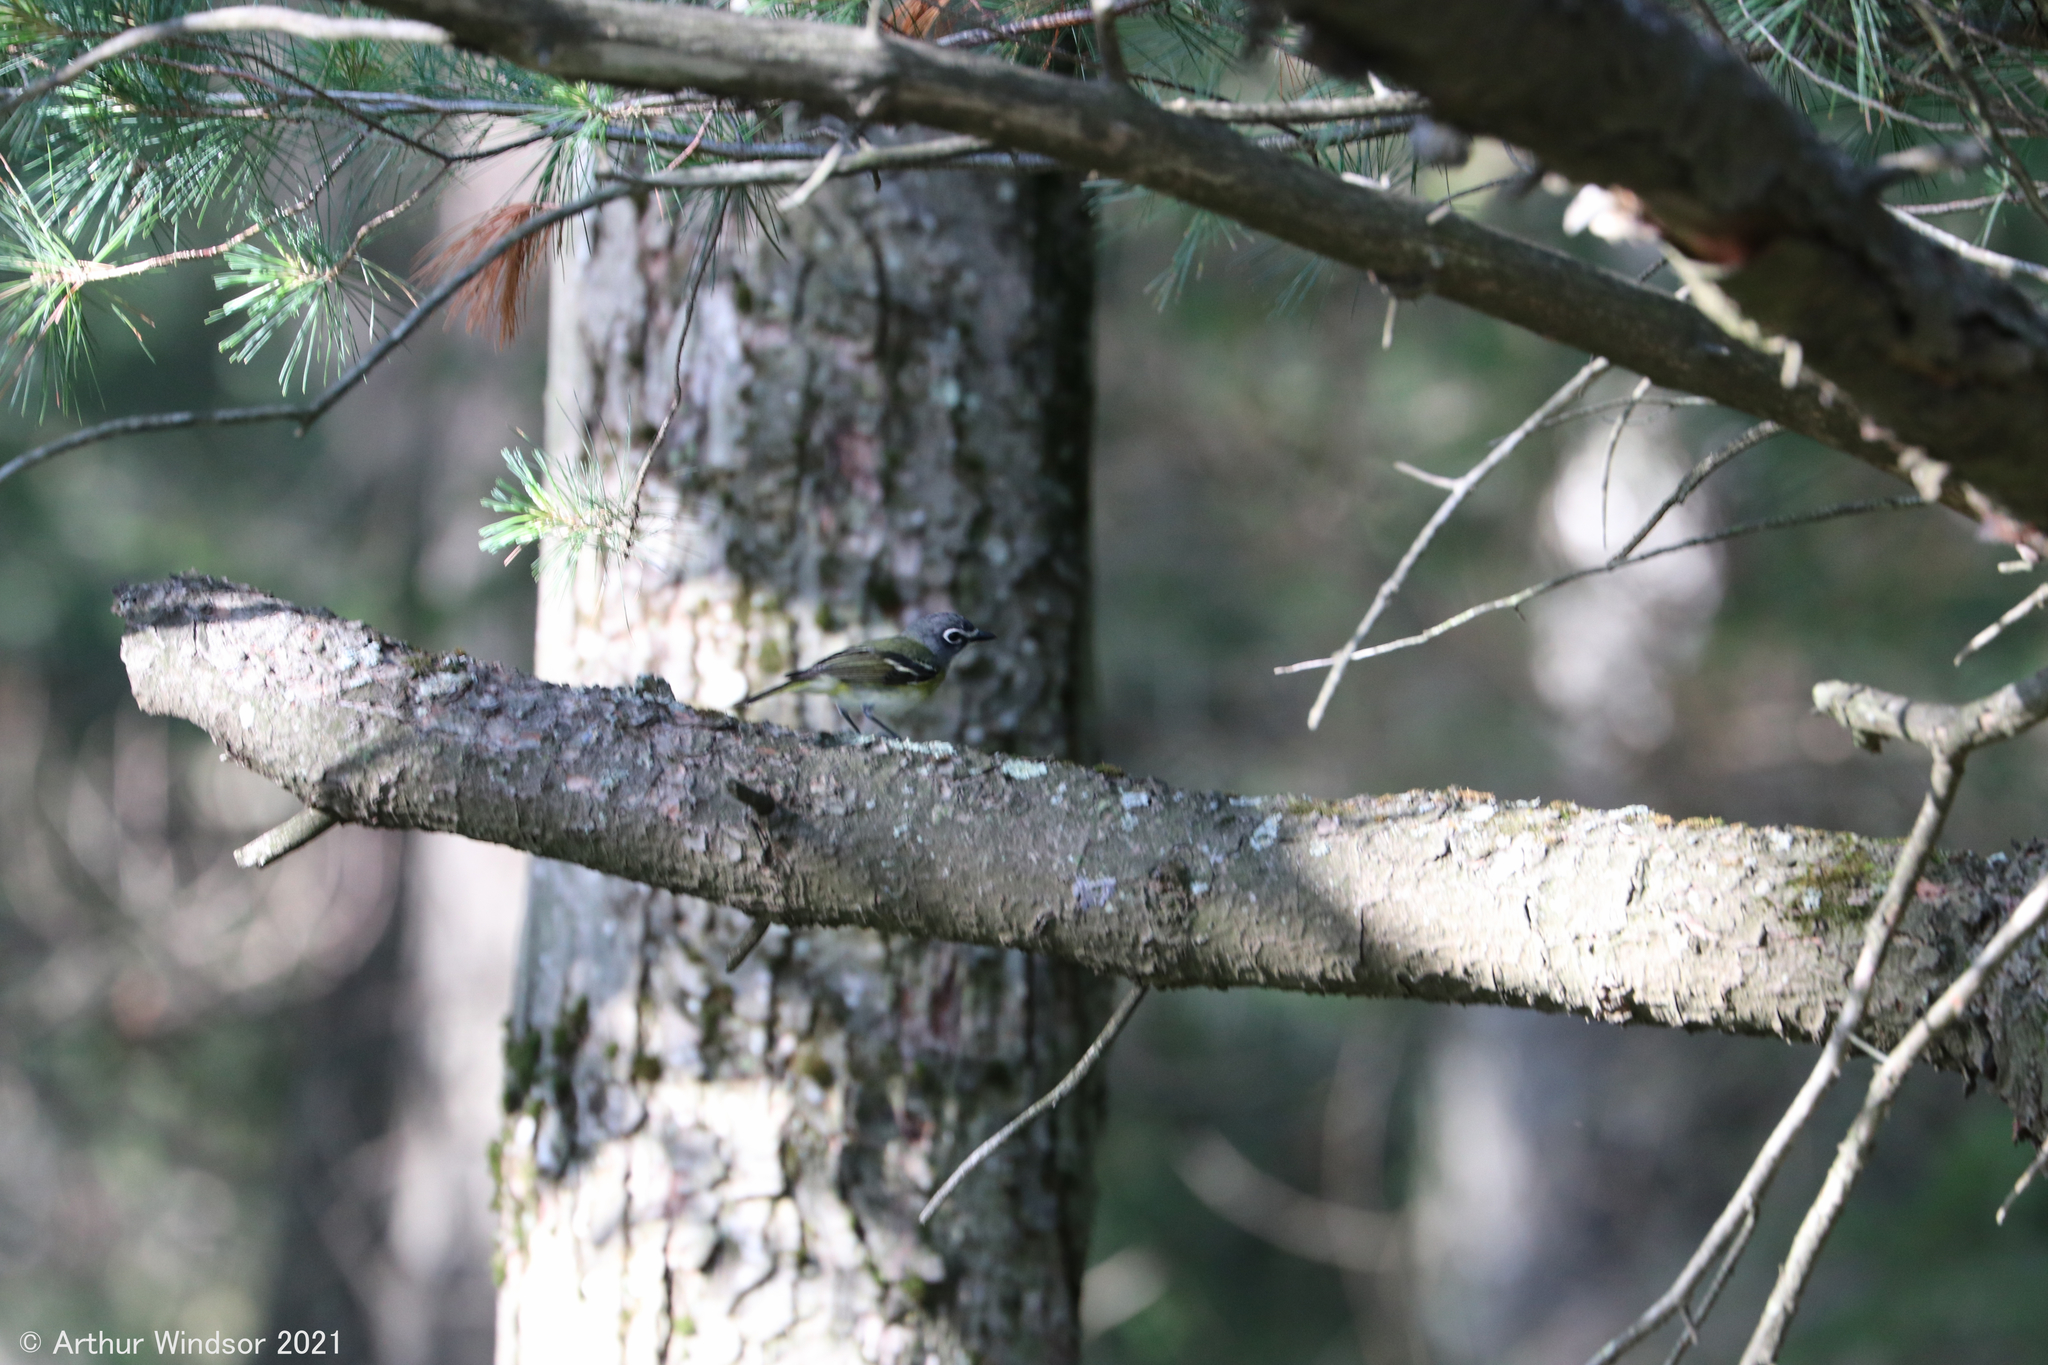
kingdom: Animalia
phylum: Chordata
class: Aves
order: Passeriformes
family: Vireonidae
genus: Vireo
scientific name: Vireo solitarius
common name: Blue-headed vireo
